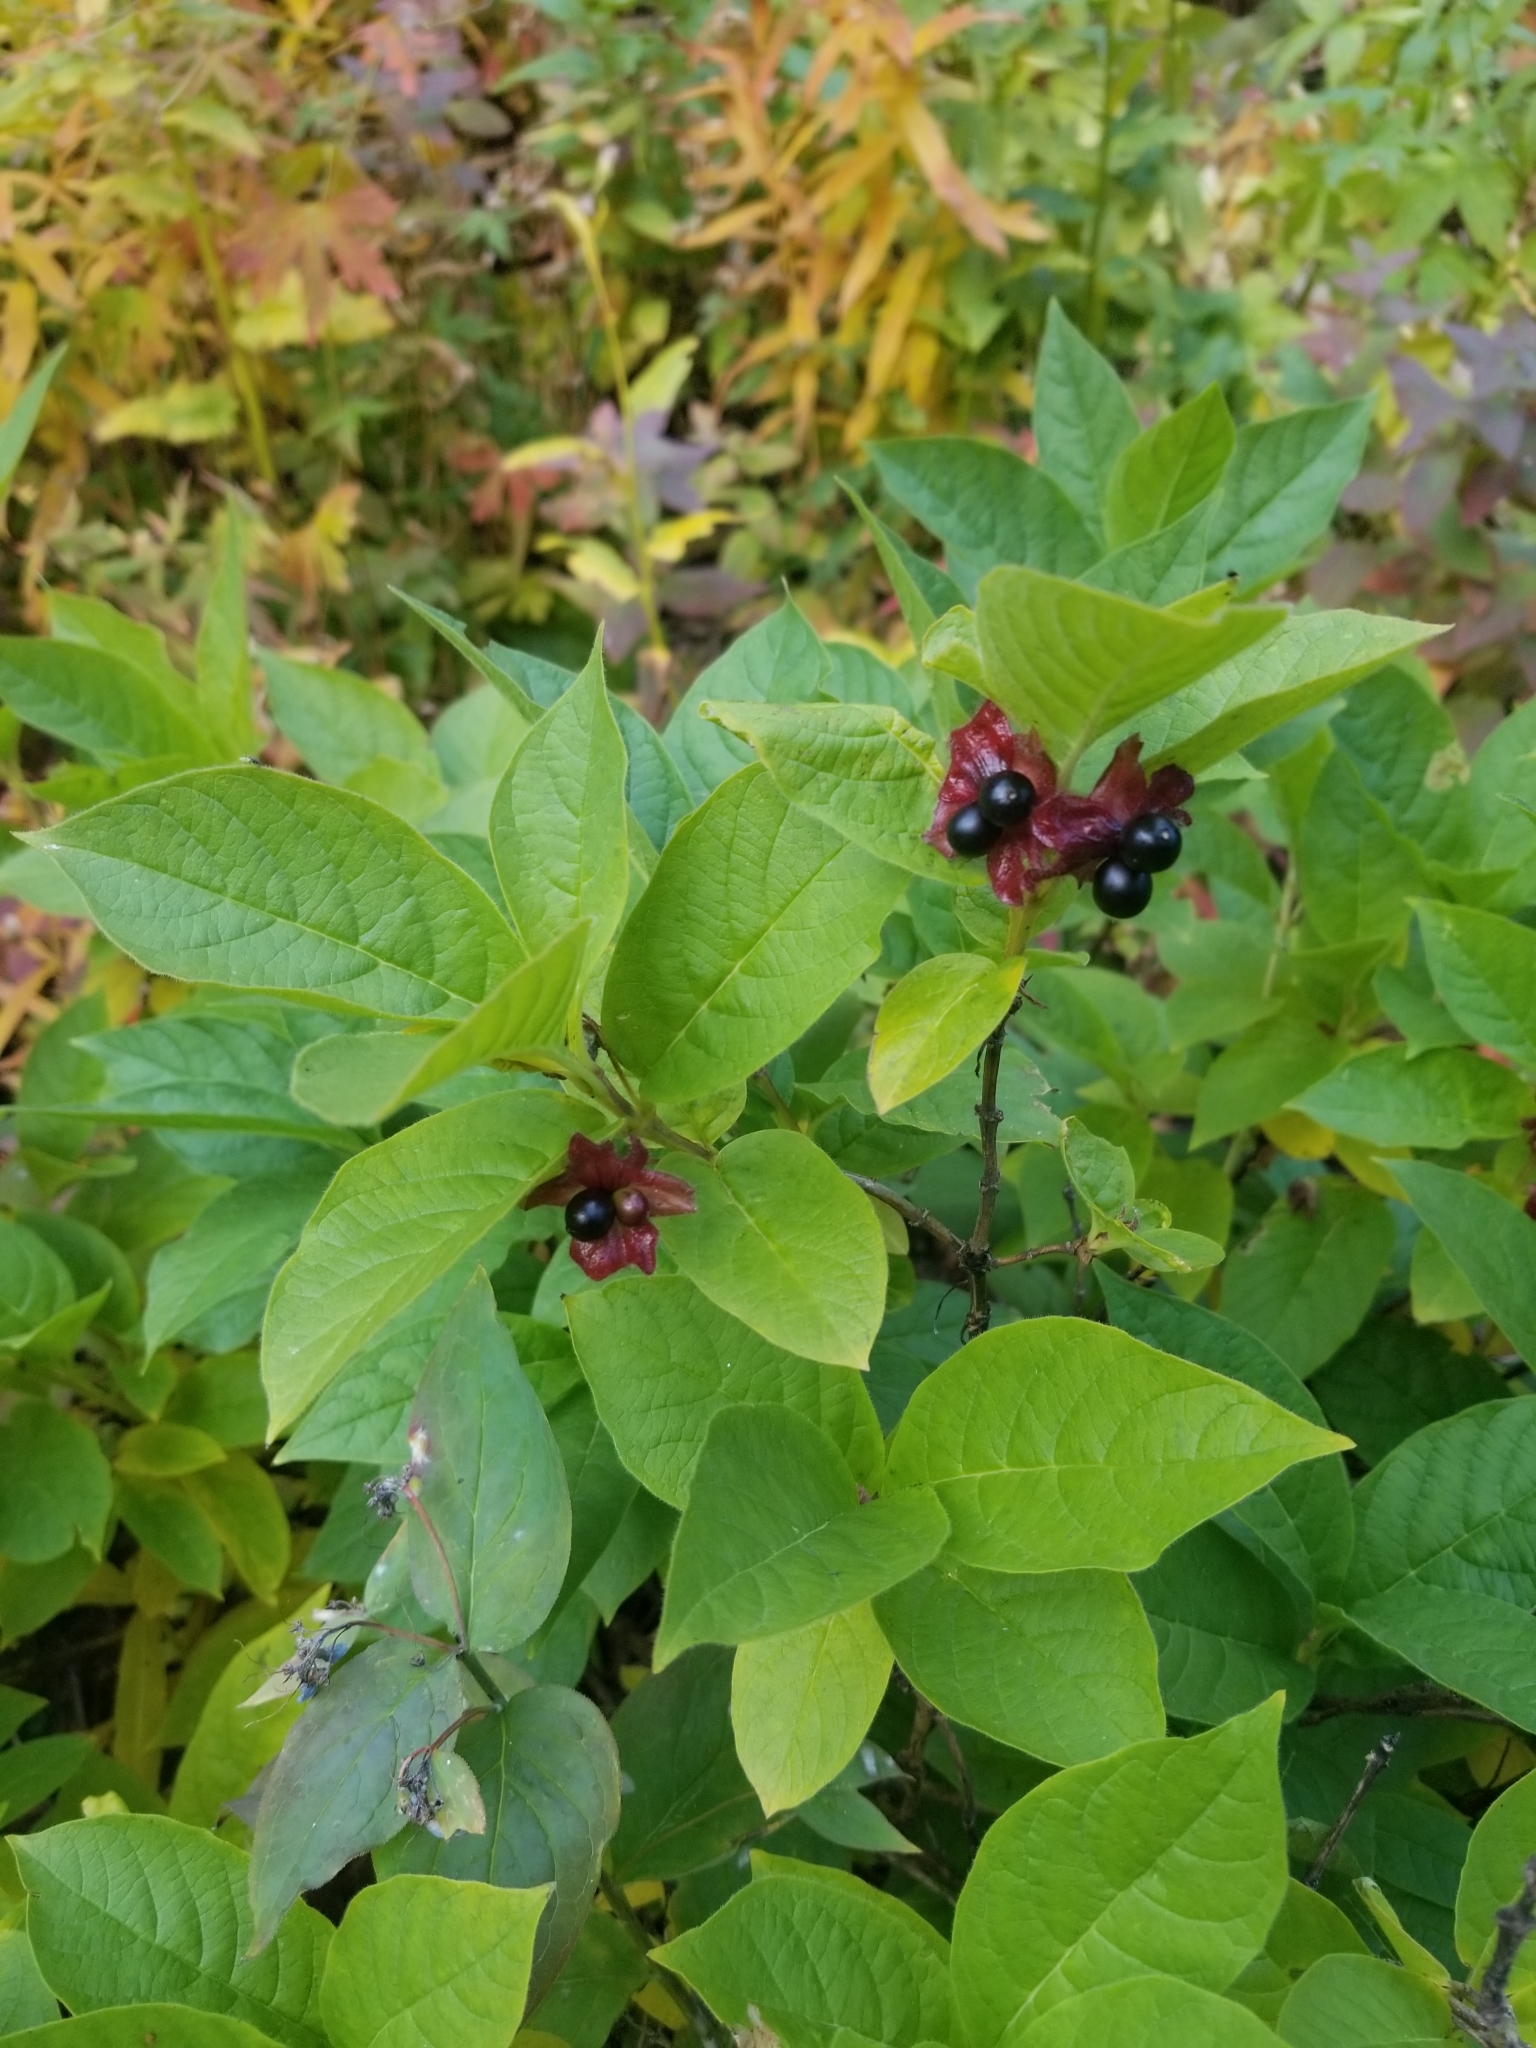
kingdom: Plantae
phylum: Tracheophyta
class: Magnoliopsida
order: Dipsacales
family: Caprifoliaceae
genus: Lonicera
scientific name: Lonicera involucrata
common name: Californian honeysuckle
